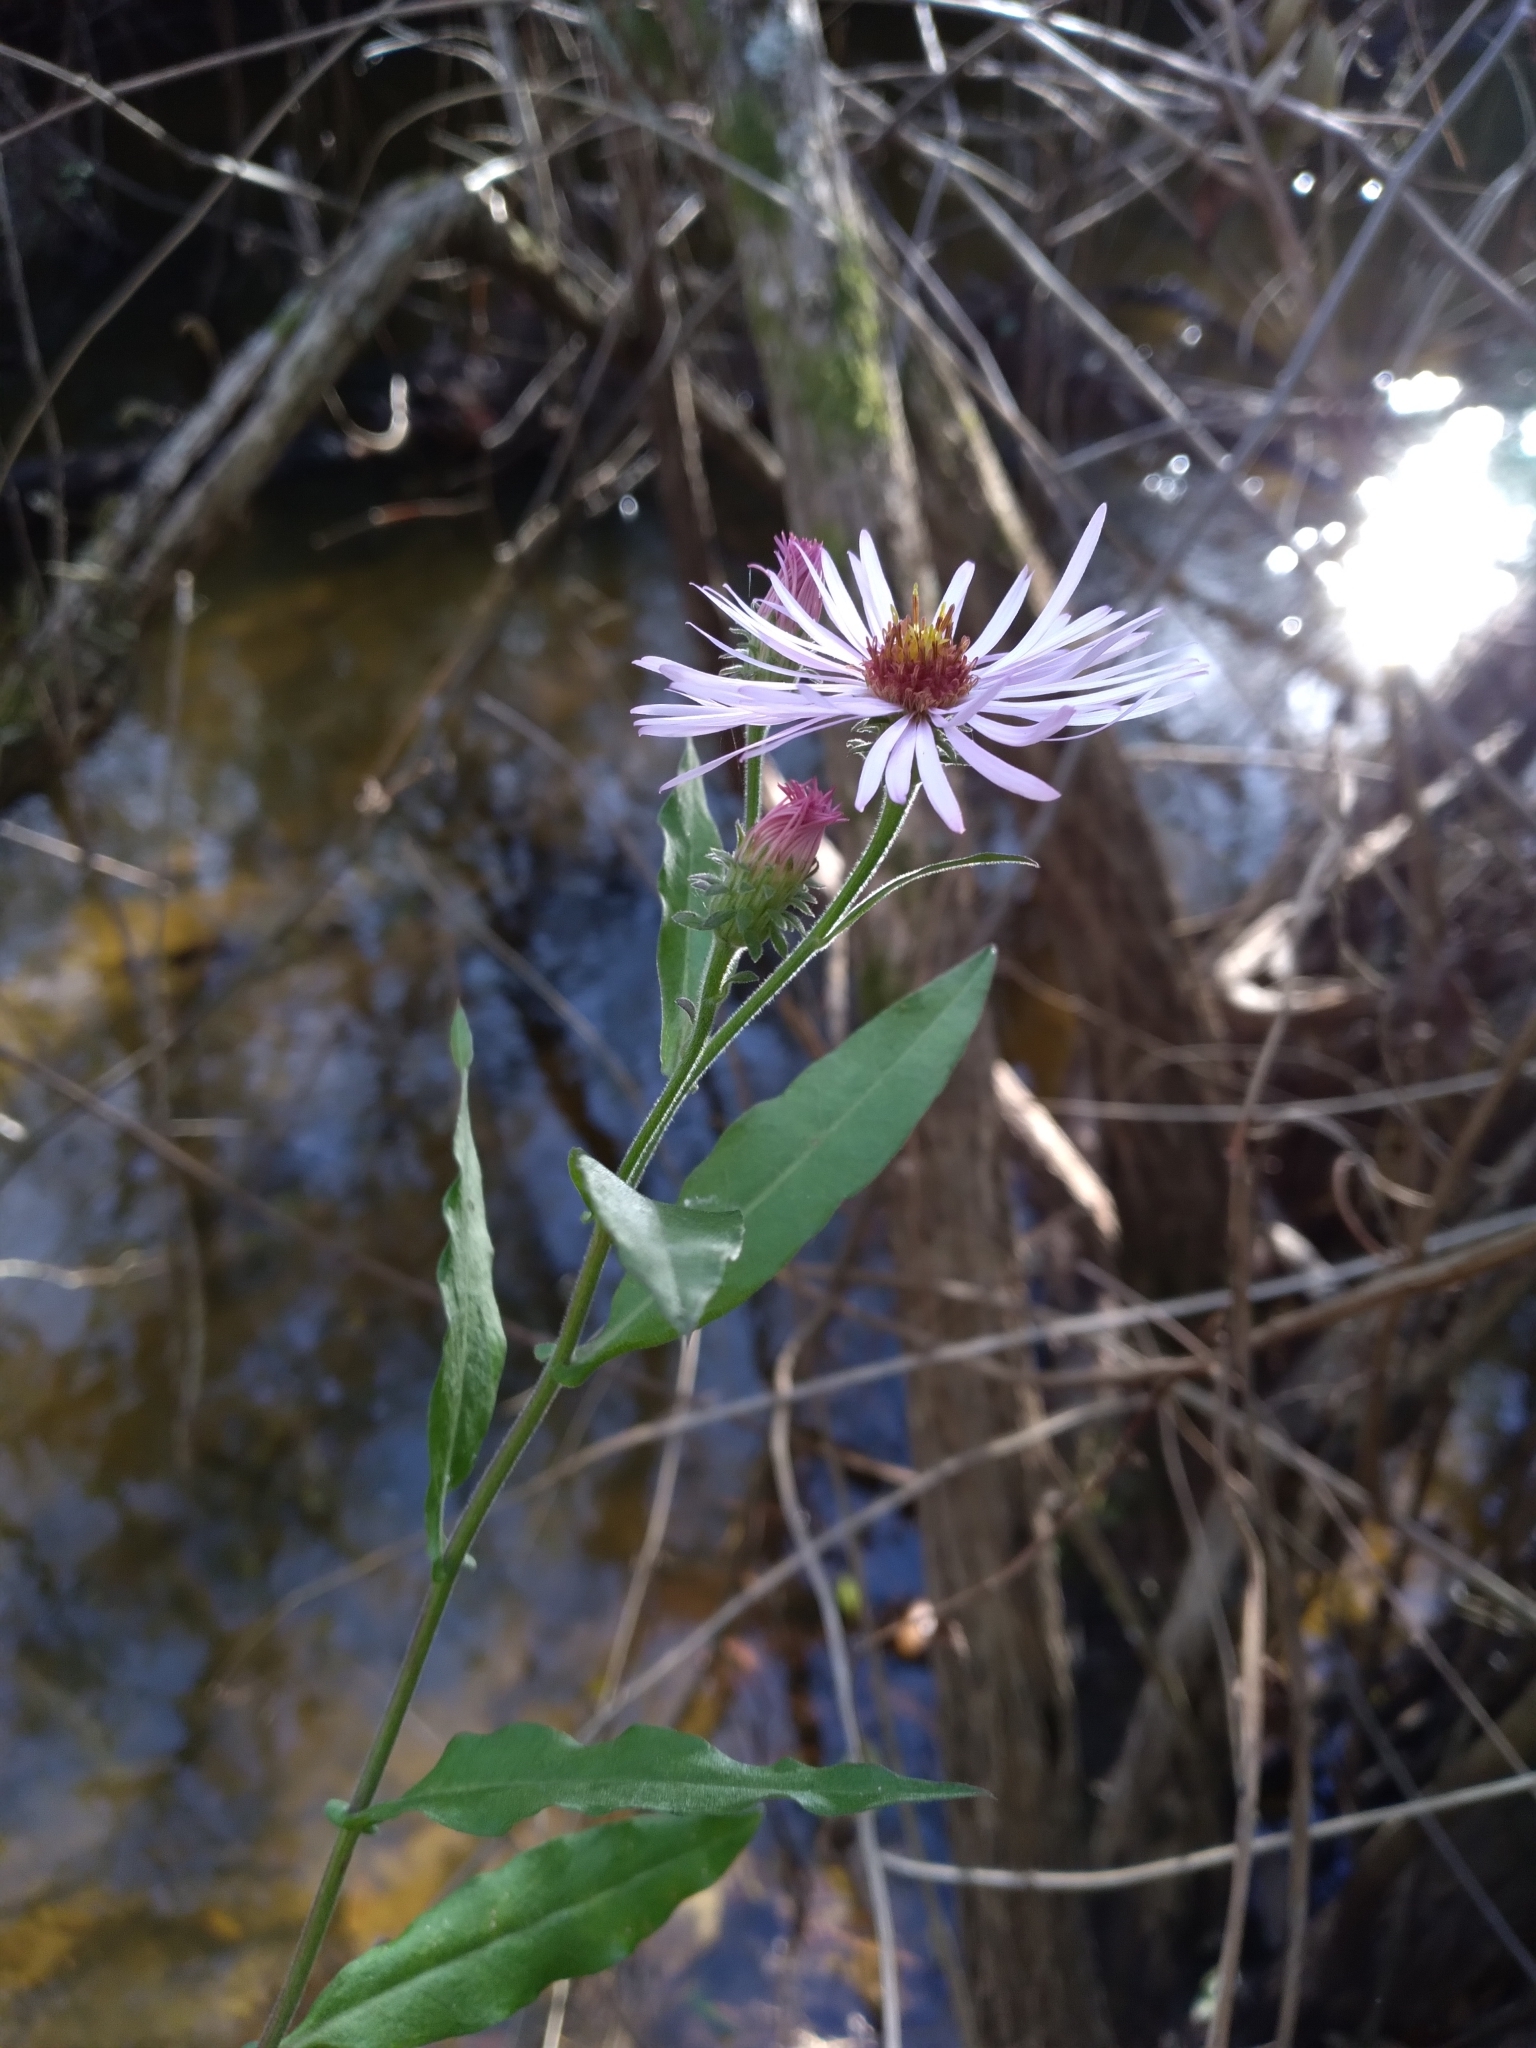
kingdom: Plantae
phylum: Tracheophyta
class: Magnoliopsida
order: Asterales
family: Asteraceae
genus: Ampelaster
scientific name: Ampelaster carolinianus
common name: Climbing aster
